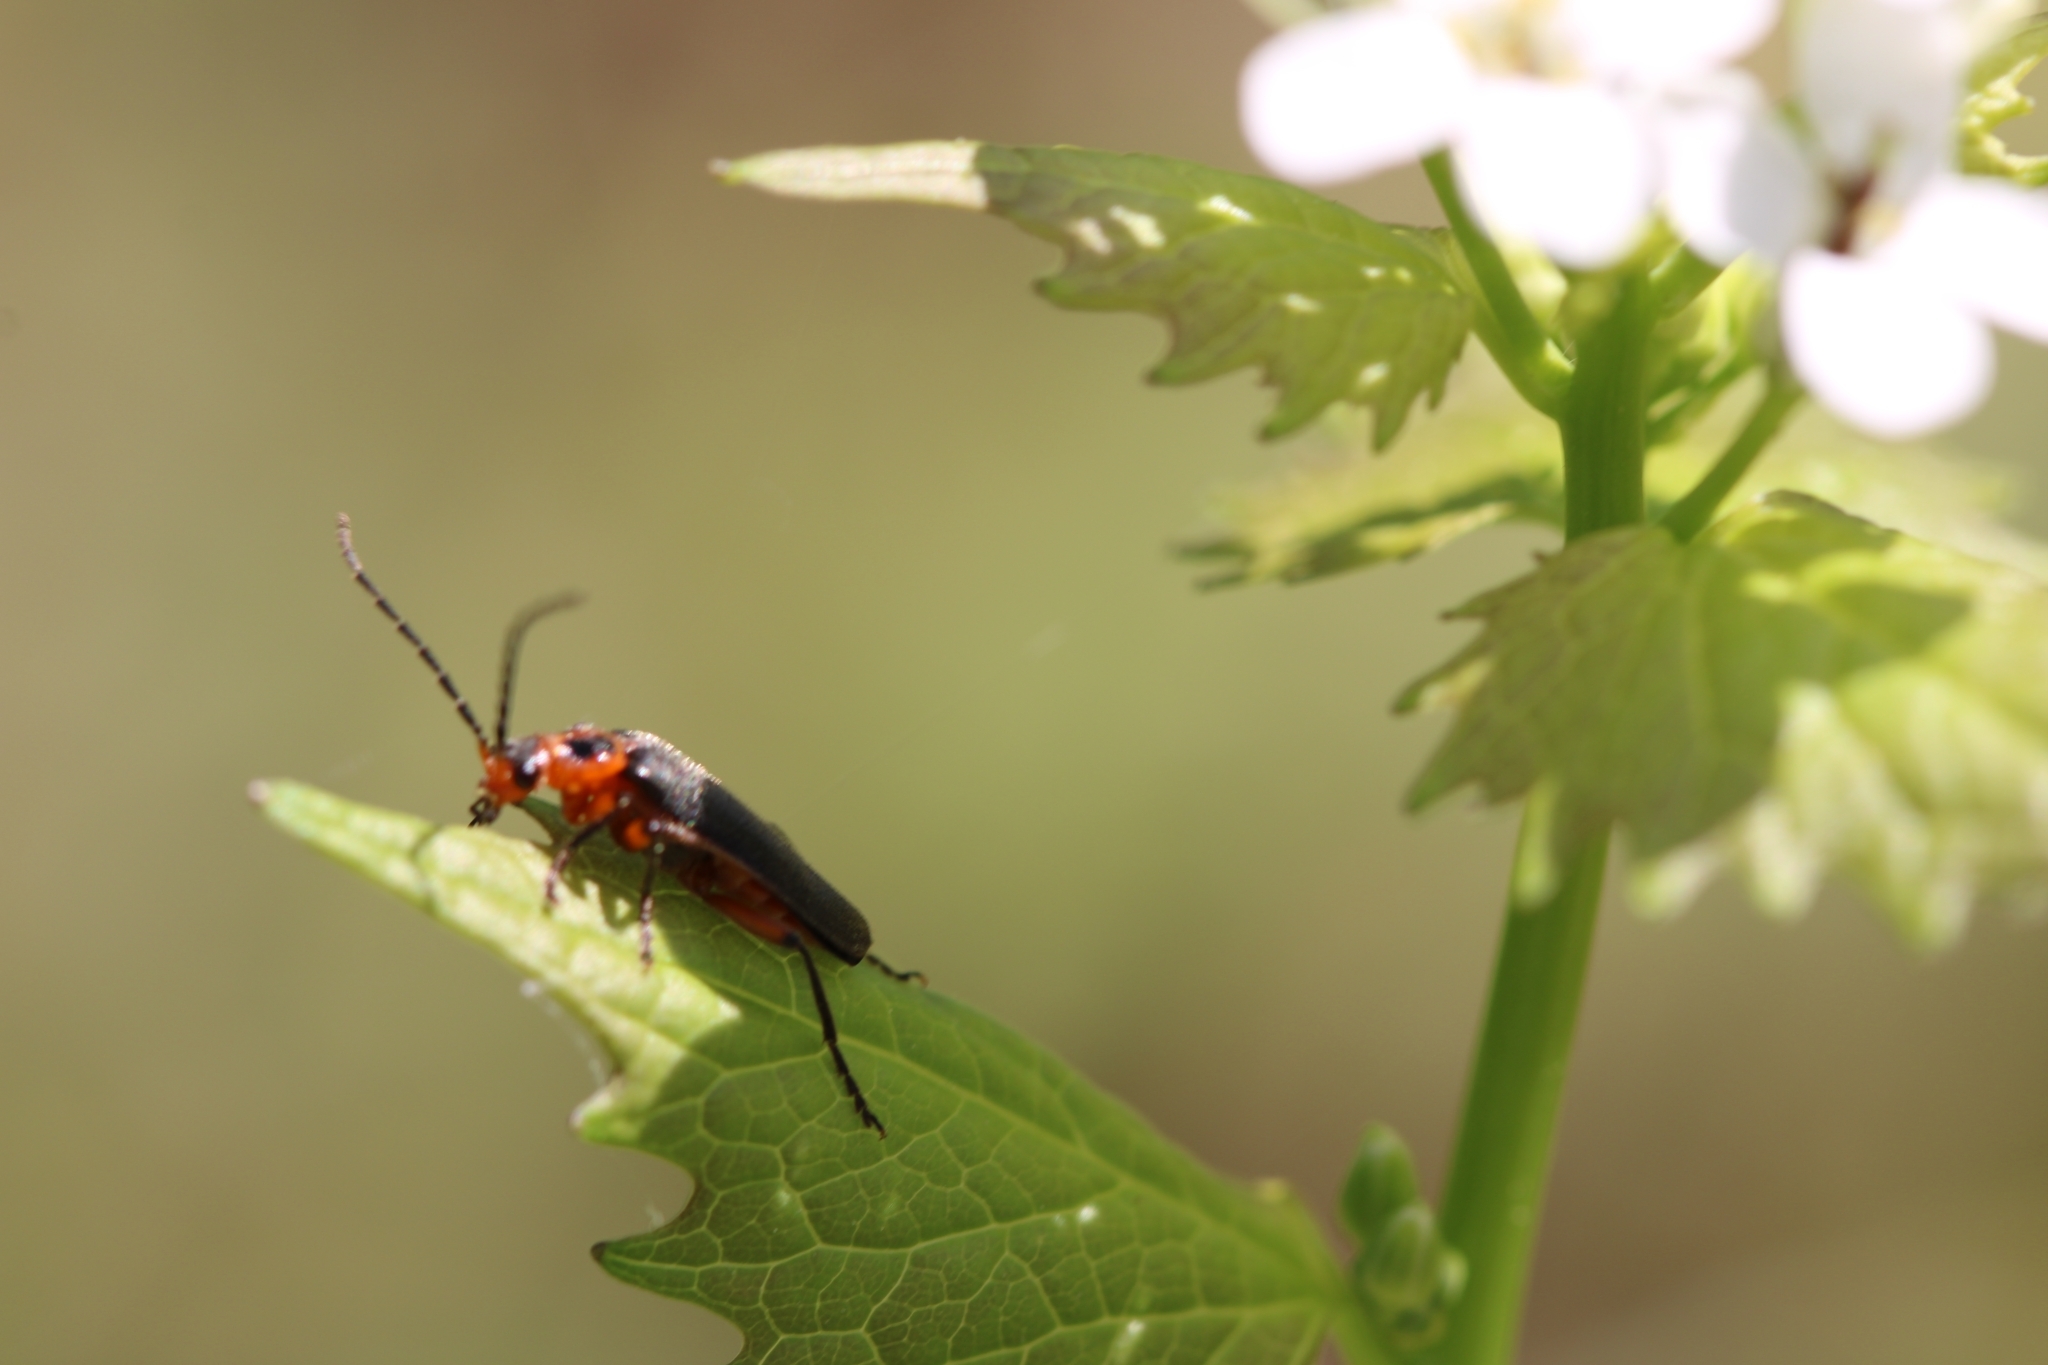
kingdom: Animalia
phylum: Arthropoda
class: Insecta
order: Coleoptera
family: Cantharidae
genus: Atalantycha
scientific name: Atalantycha bilineata
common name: Two-lined leatherwing
